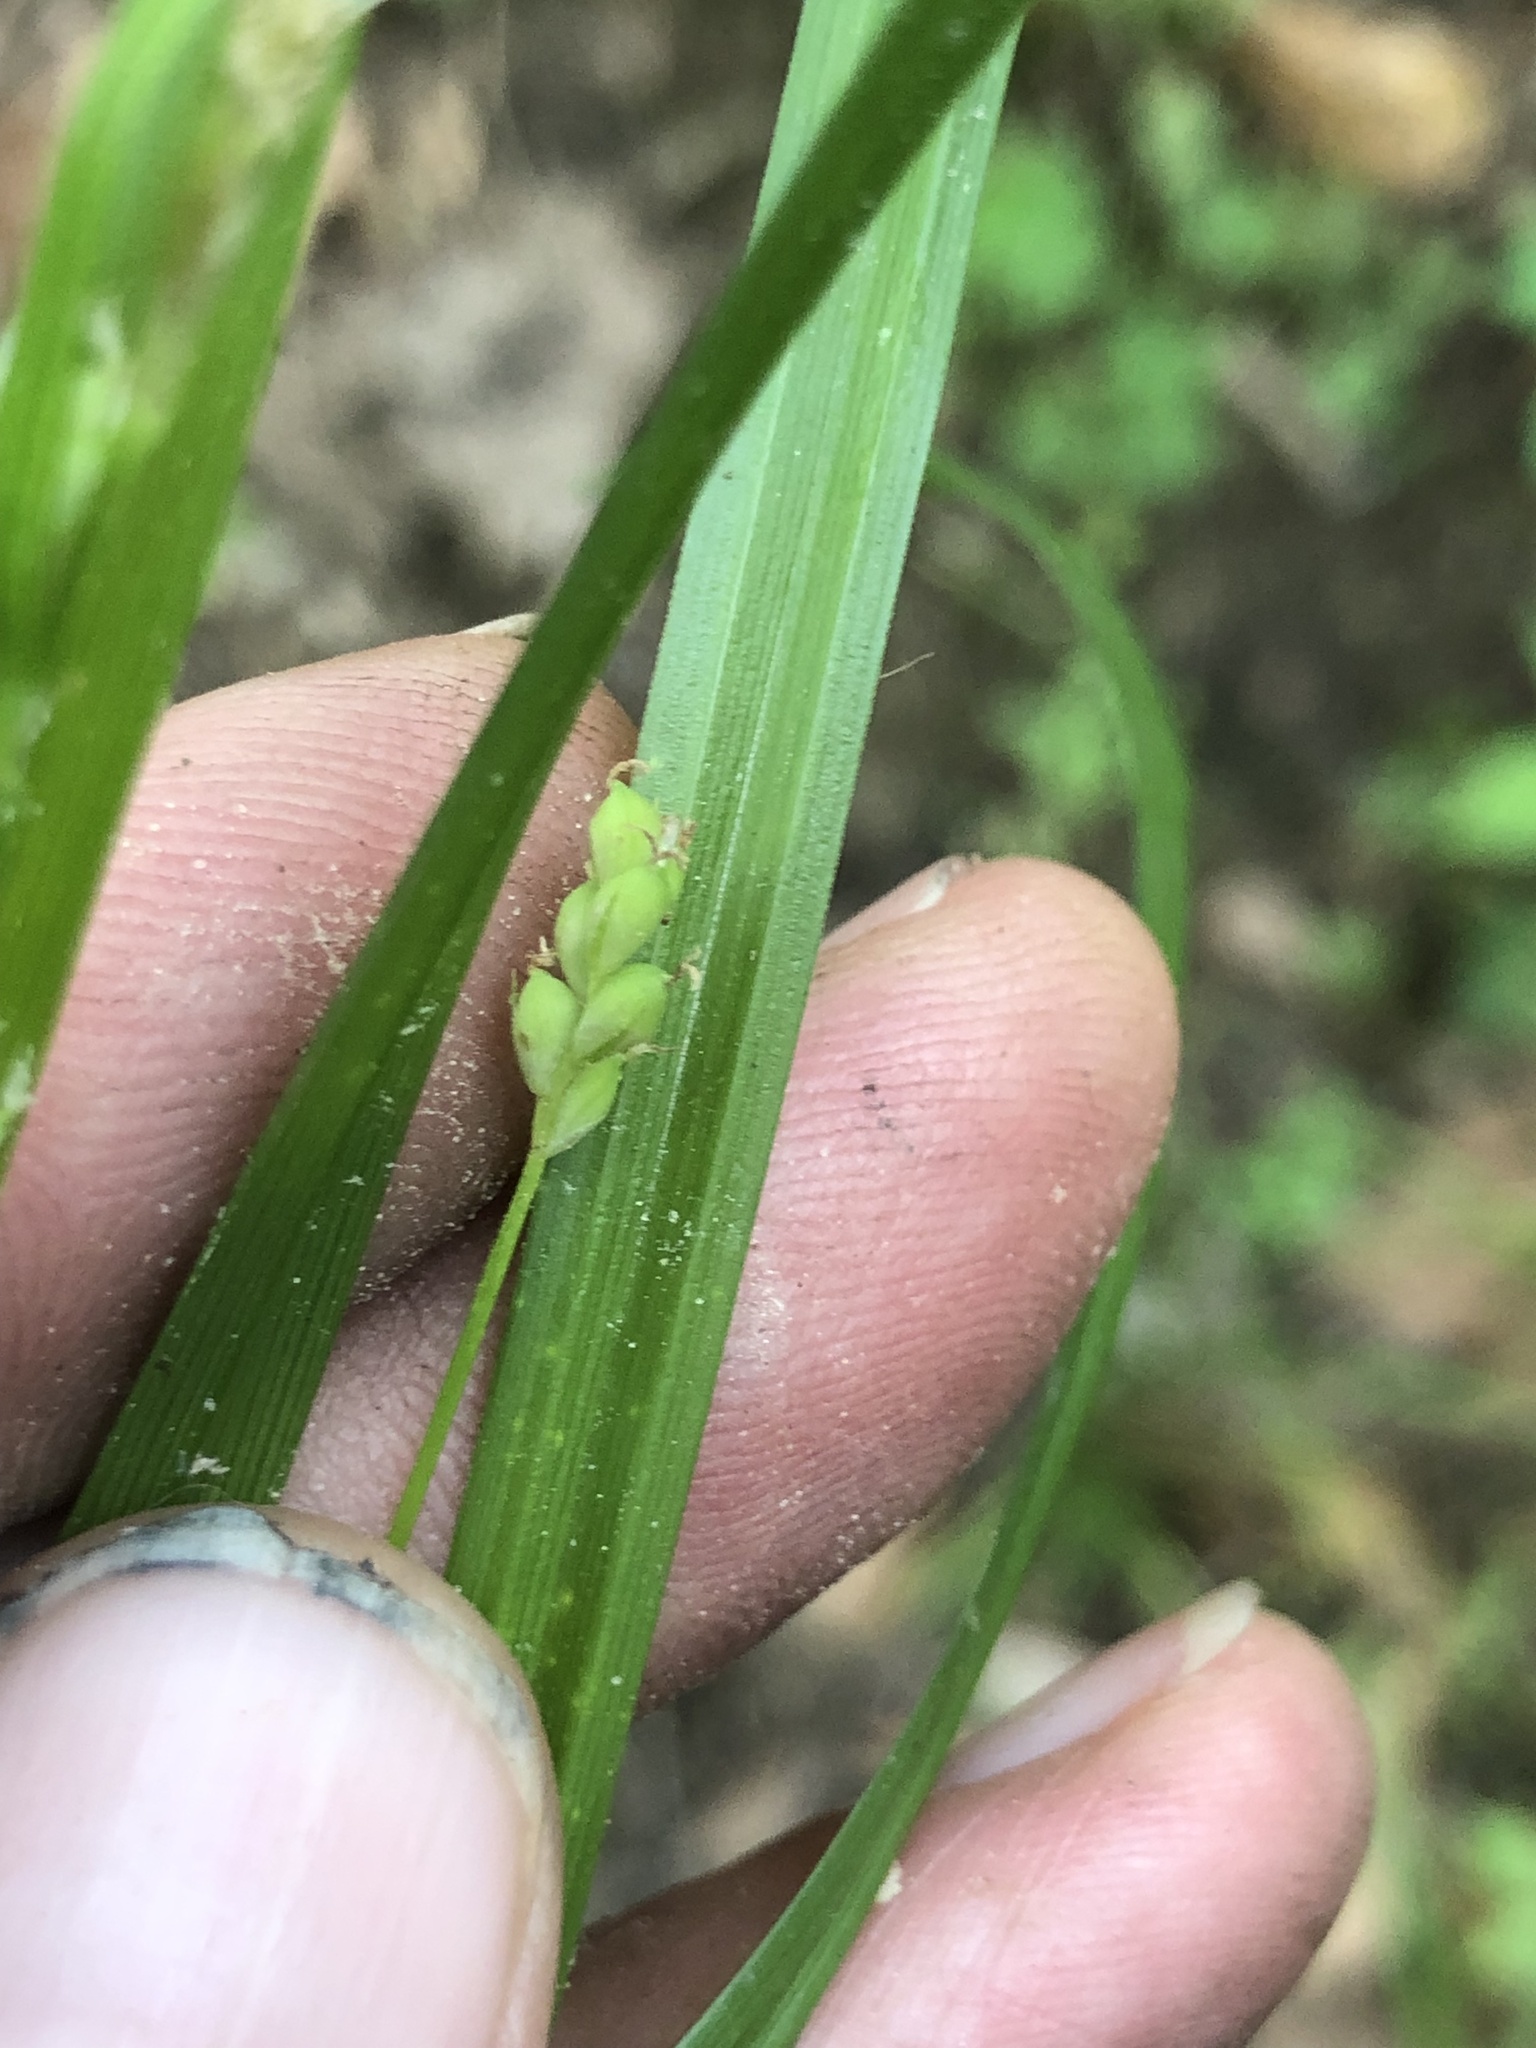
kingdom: Plantae
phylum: Tracheophyta
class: Liliopsida
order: Poales
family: Cyperaceae
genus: Carex
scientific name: Carex blanda
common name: Bland sedge
